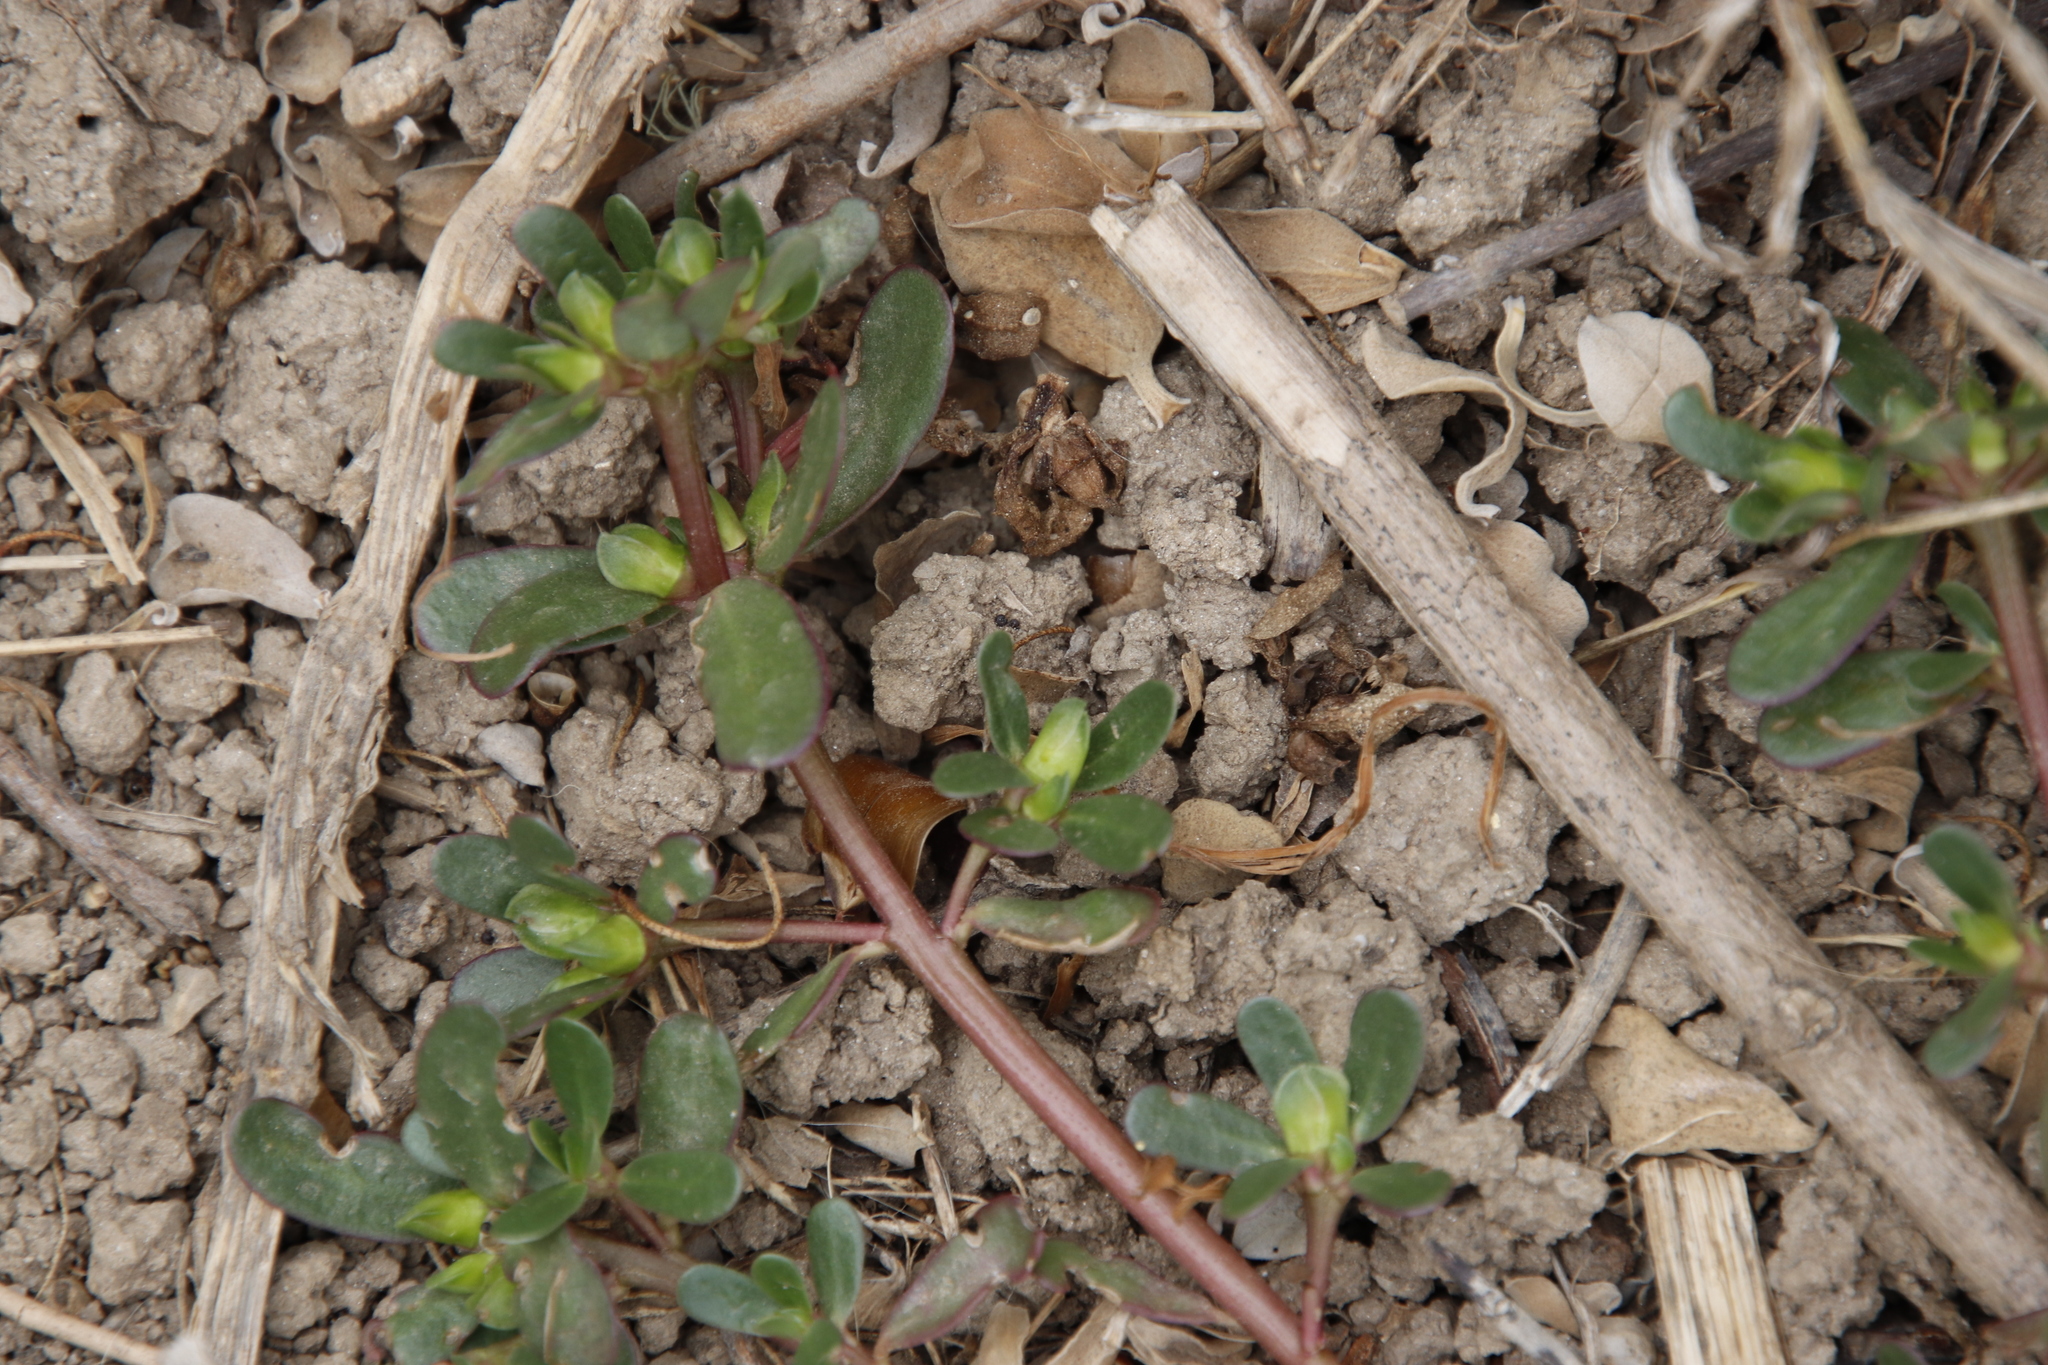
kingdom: Plantae
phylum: Tracheophyta
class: Magnoliopsida
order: Caryophyllales
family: Portulacaceae
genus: Portulaca
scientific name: Portulaca oleracea
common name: Common purslane
